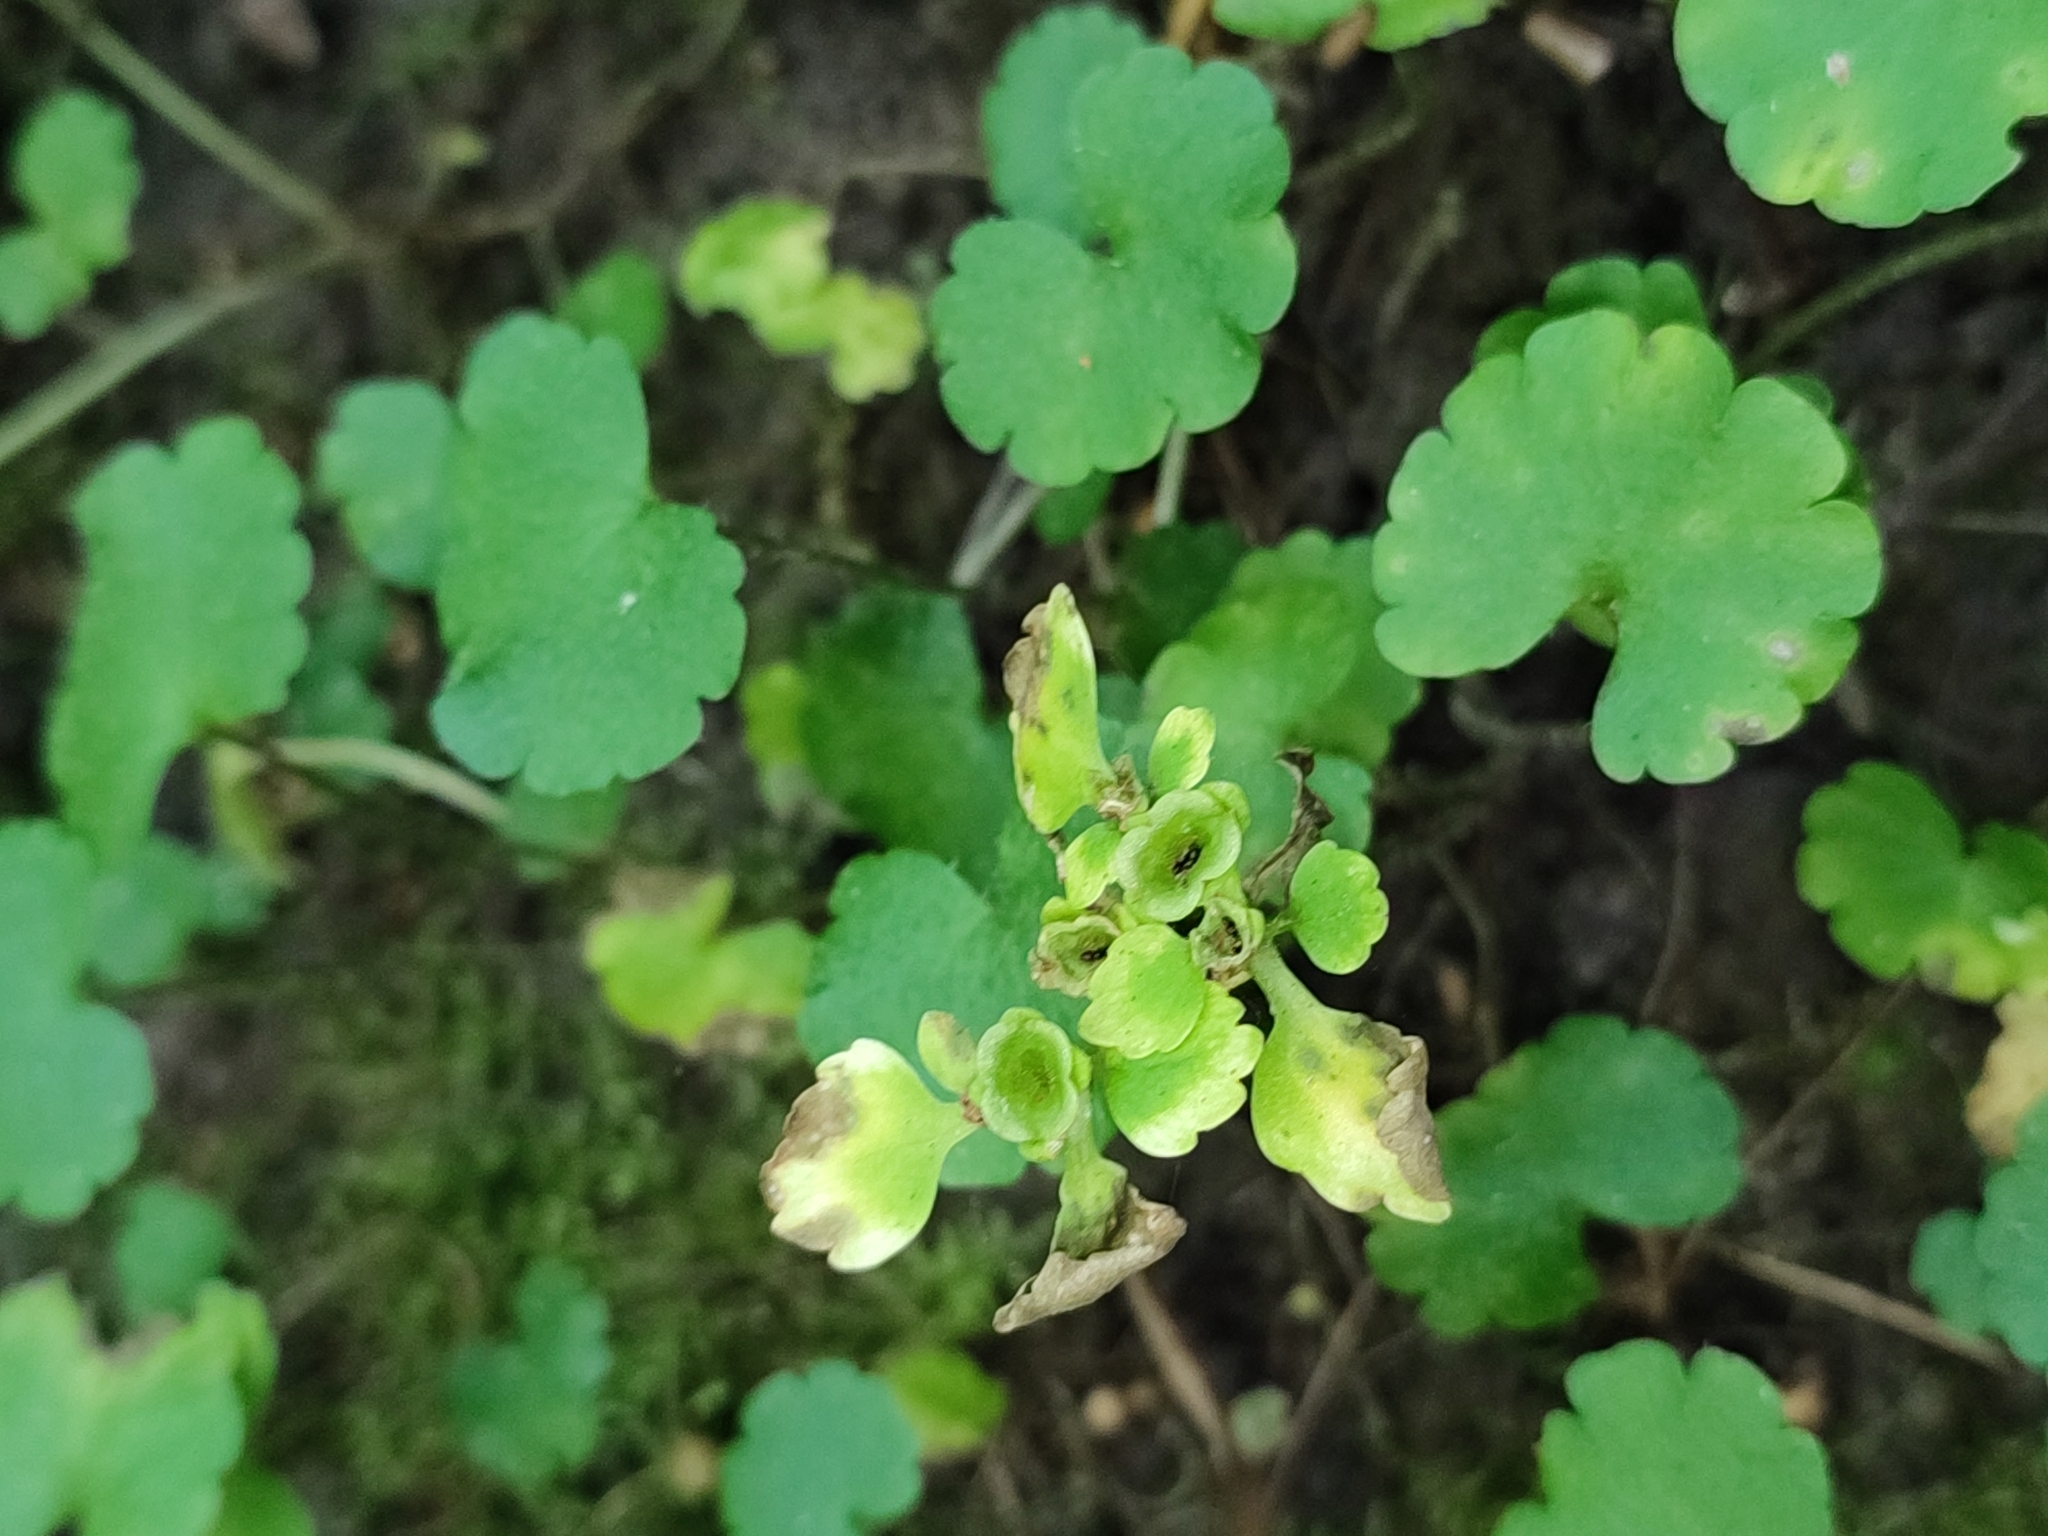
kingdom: Plantae
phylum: Tracheophyta
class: Magnoliopsida
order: Saxifragales
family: Saxifragaceae
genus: Chrysosplenium
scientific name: Chrysosplenium alternifolium
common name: Alternate-leaved golden-saxifrage
